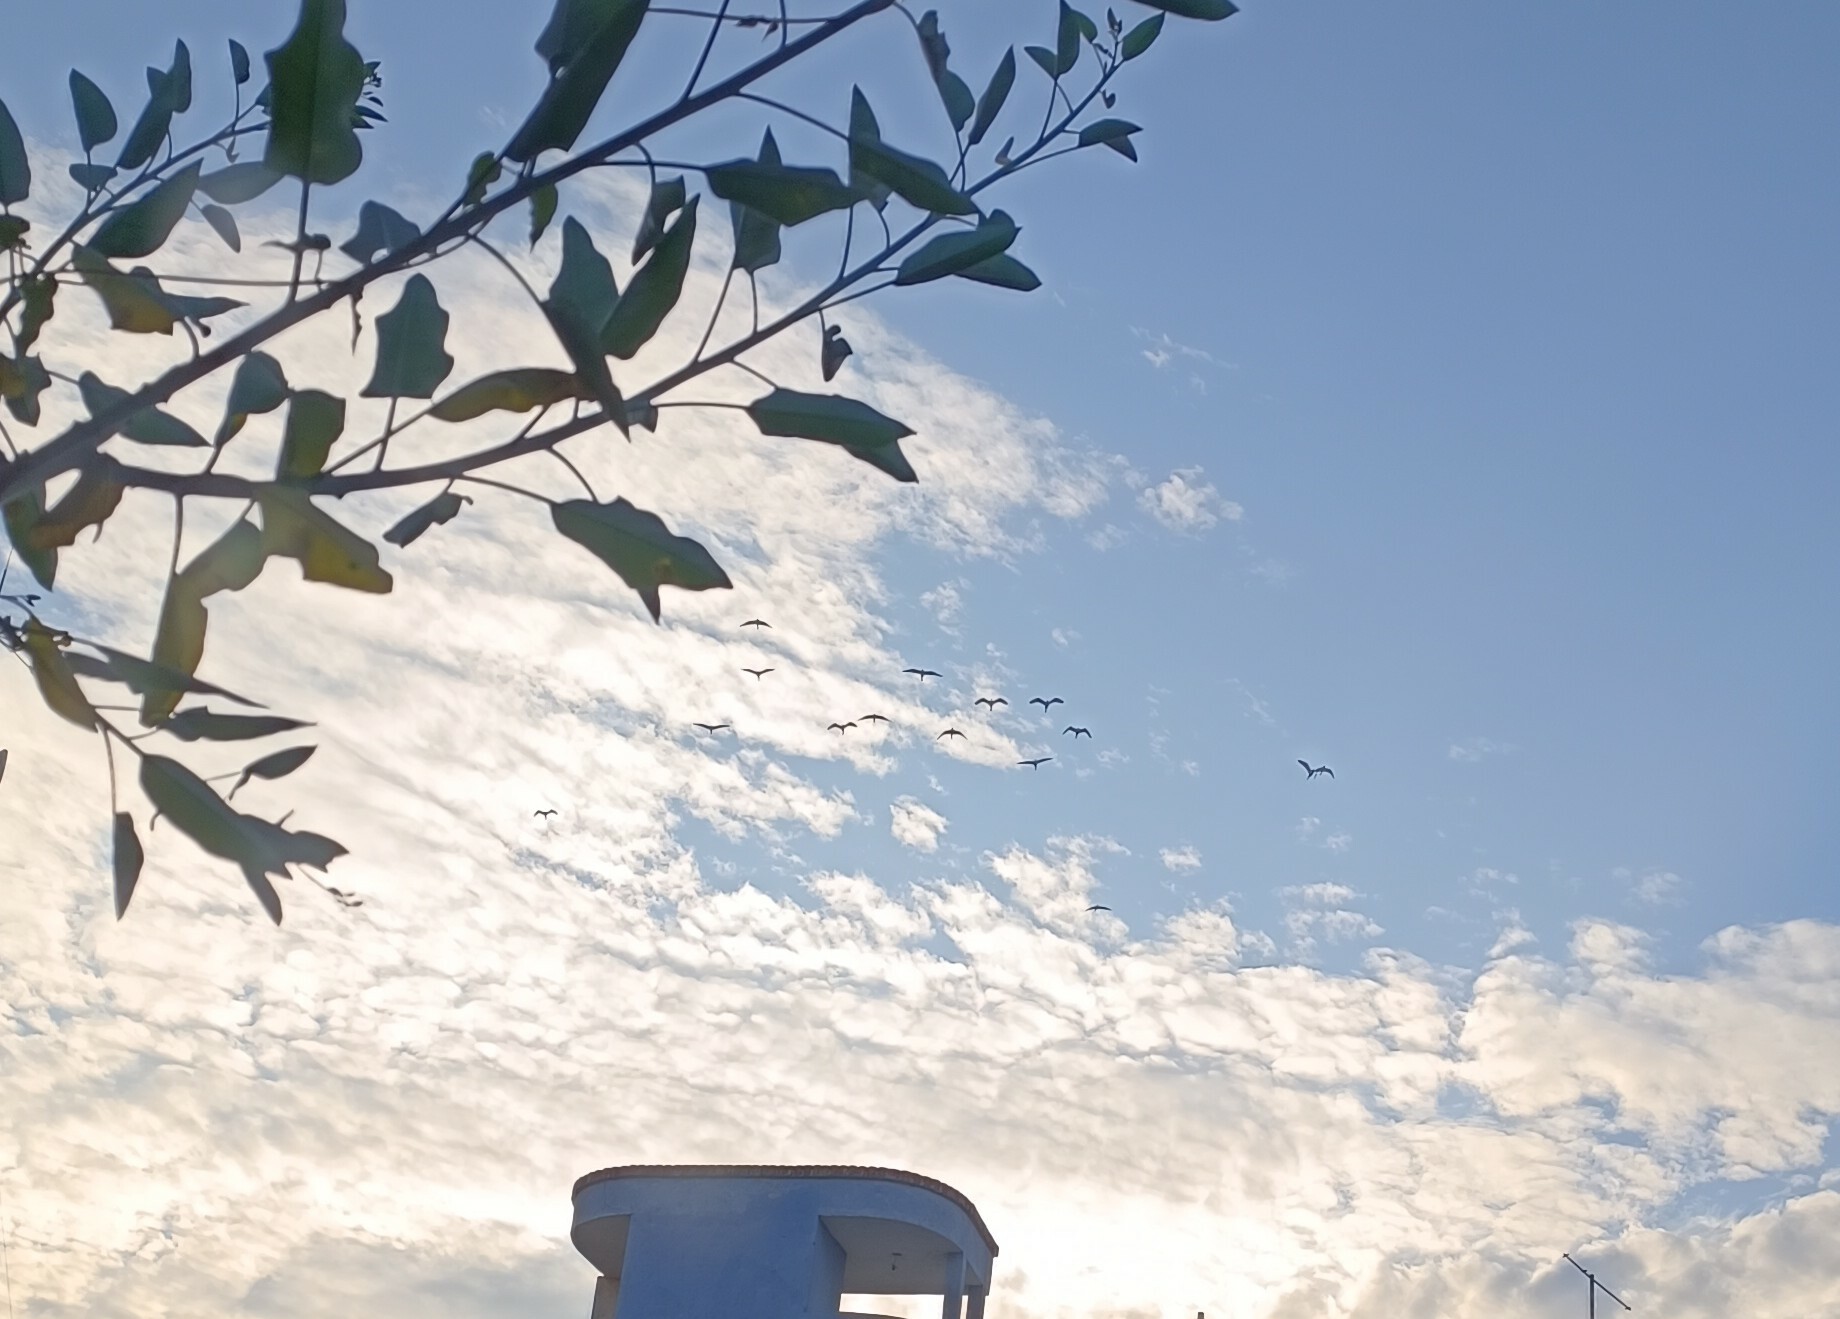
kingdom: Animalia
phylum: Chordata
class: Aves
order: Pelecaniformes
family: Ardeidae
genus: Bubulcus
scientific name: Bubulcus ibis
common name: Cattle egret
